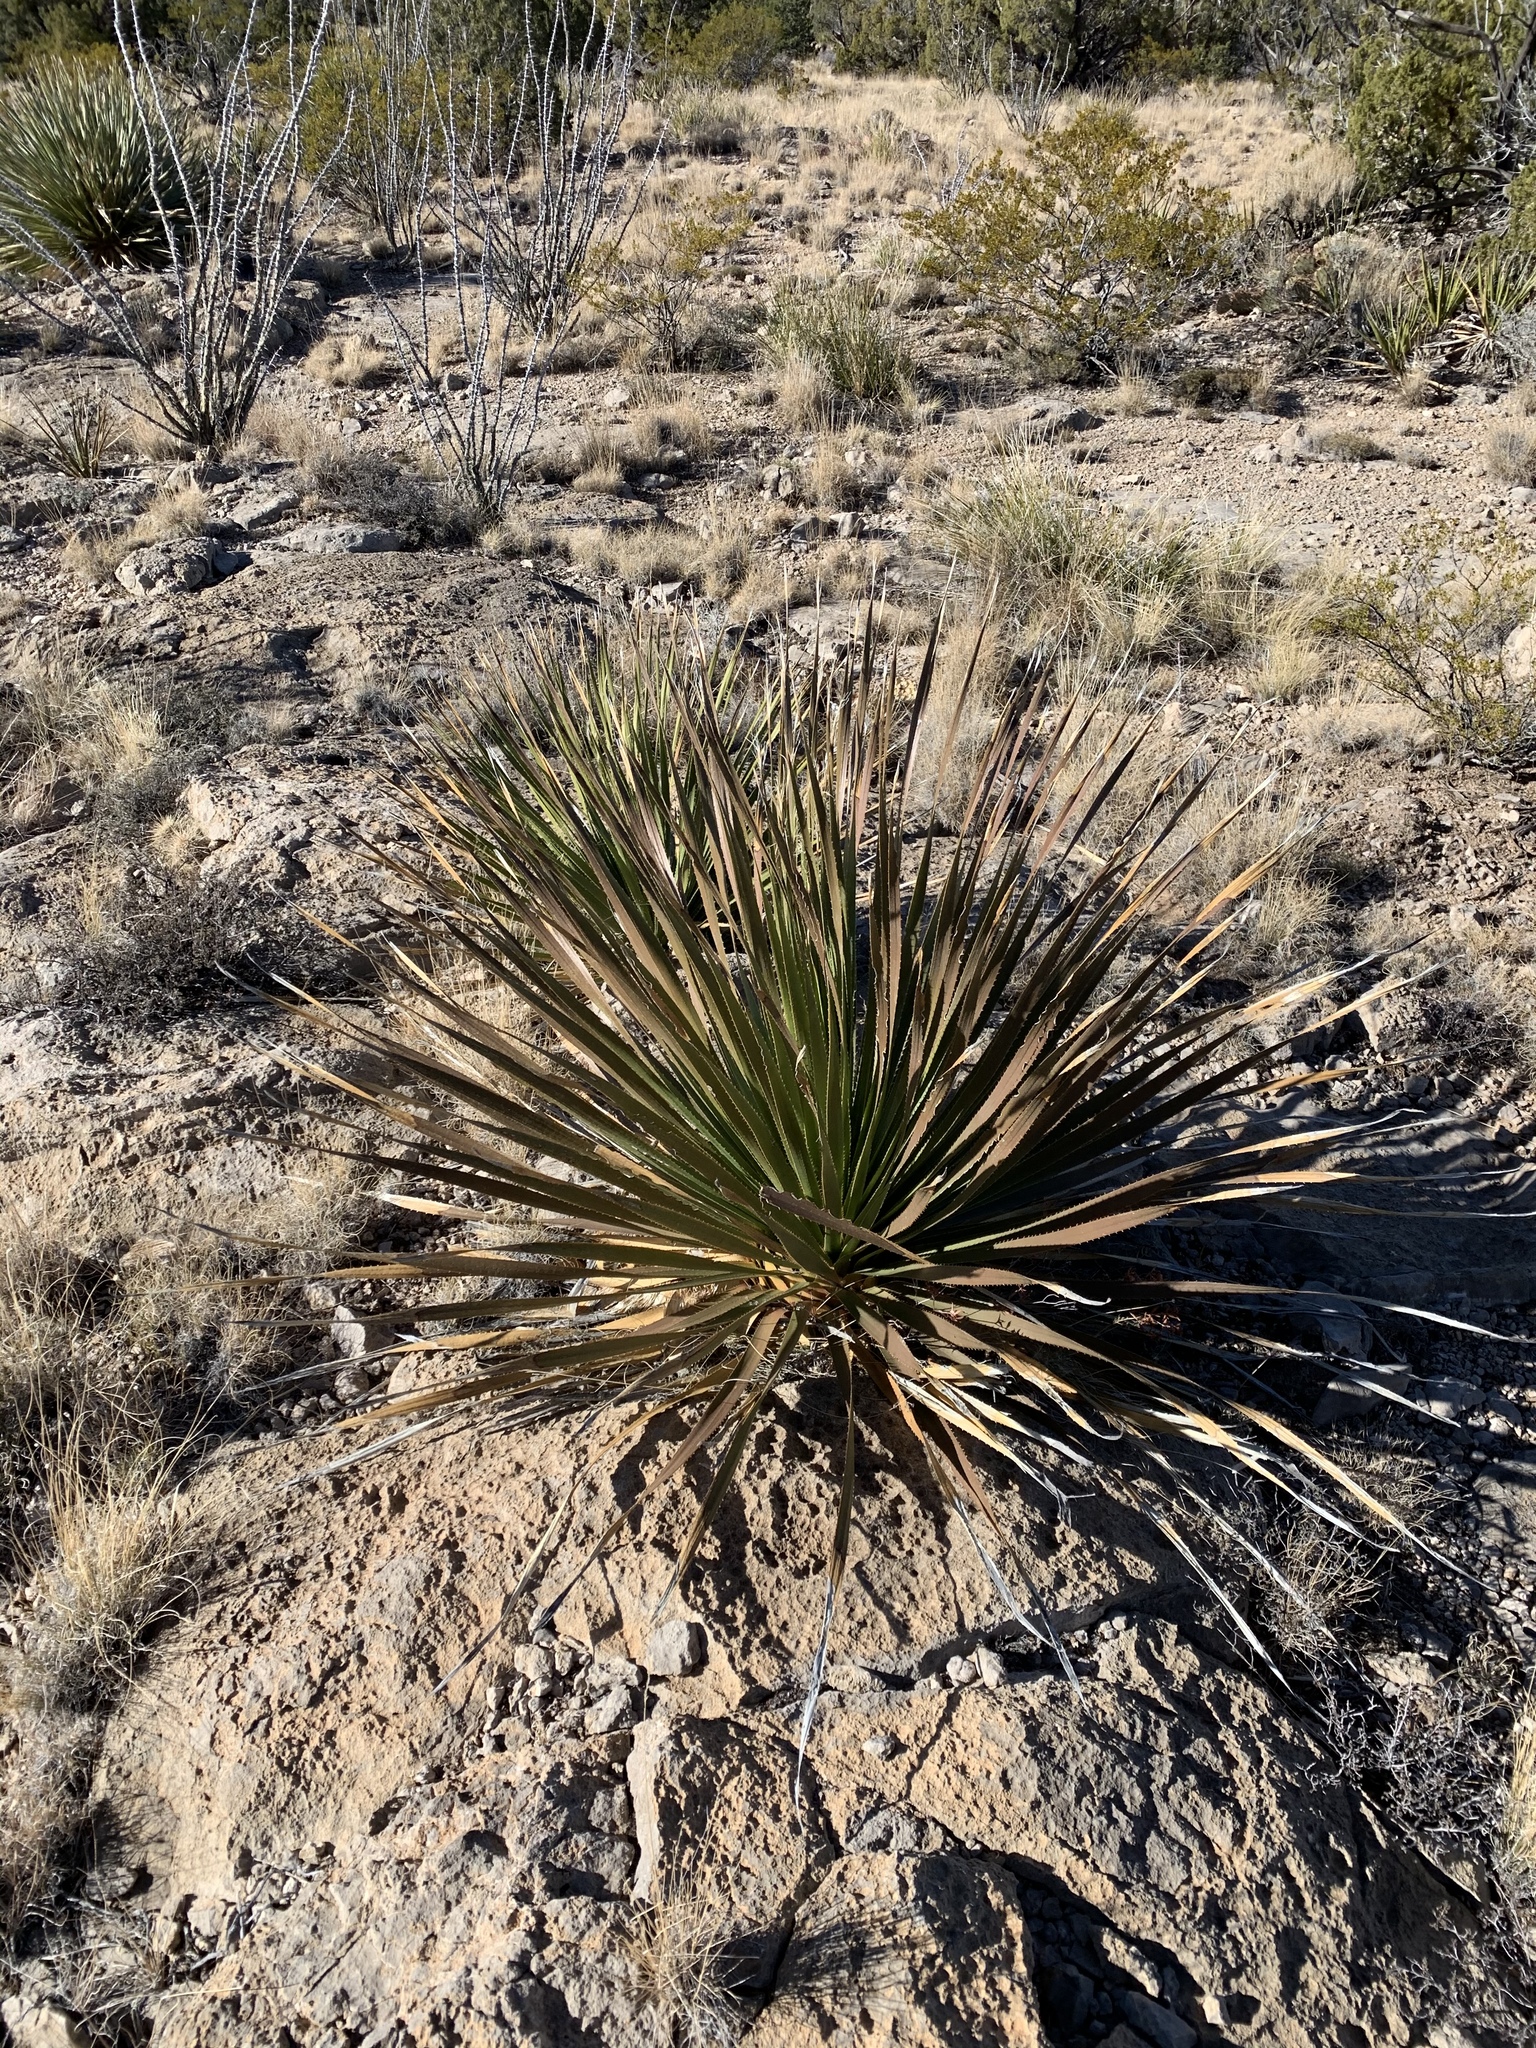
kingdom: Plantae
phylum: Tracheophyta
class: Liliopsida
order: Asparagales
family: Asparagaceae
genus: Dasylirion
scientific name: Dasylirion wheeleri
